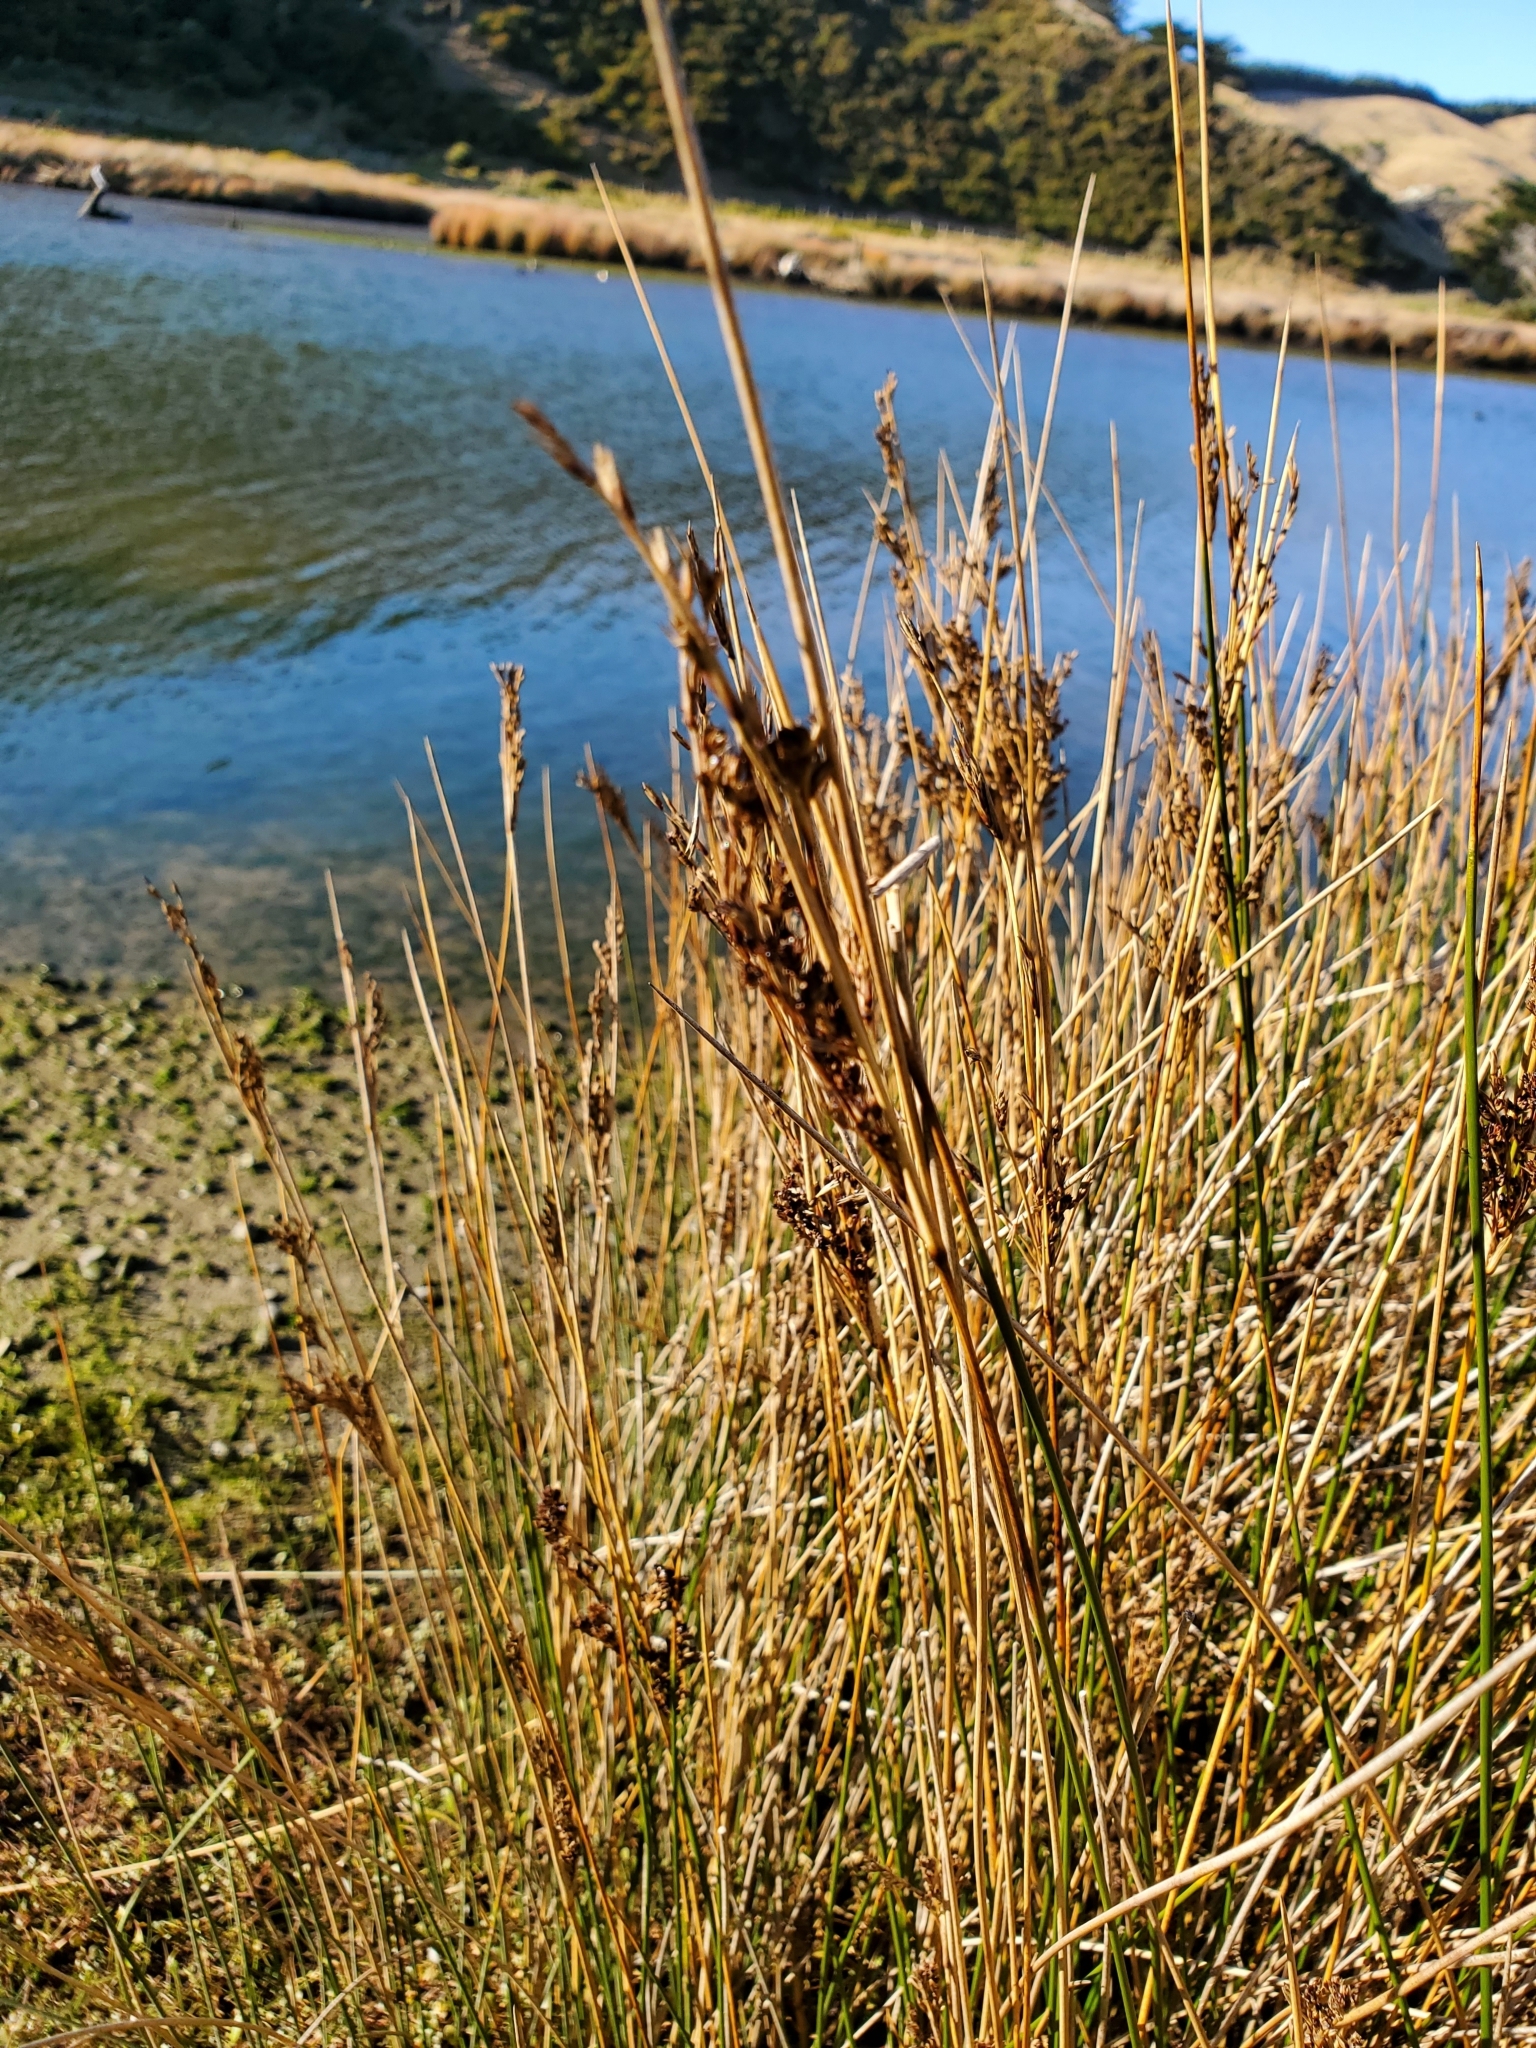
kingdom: Plantae
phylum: Tracheophyta
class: Liliopsida
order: Poales
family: Juncaceae
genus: Juncus
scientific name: Juncus kraussii
